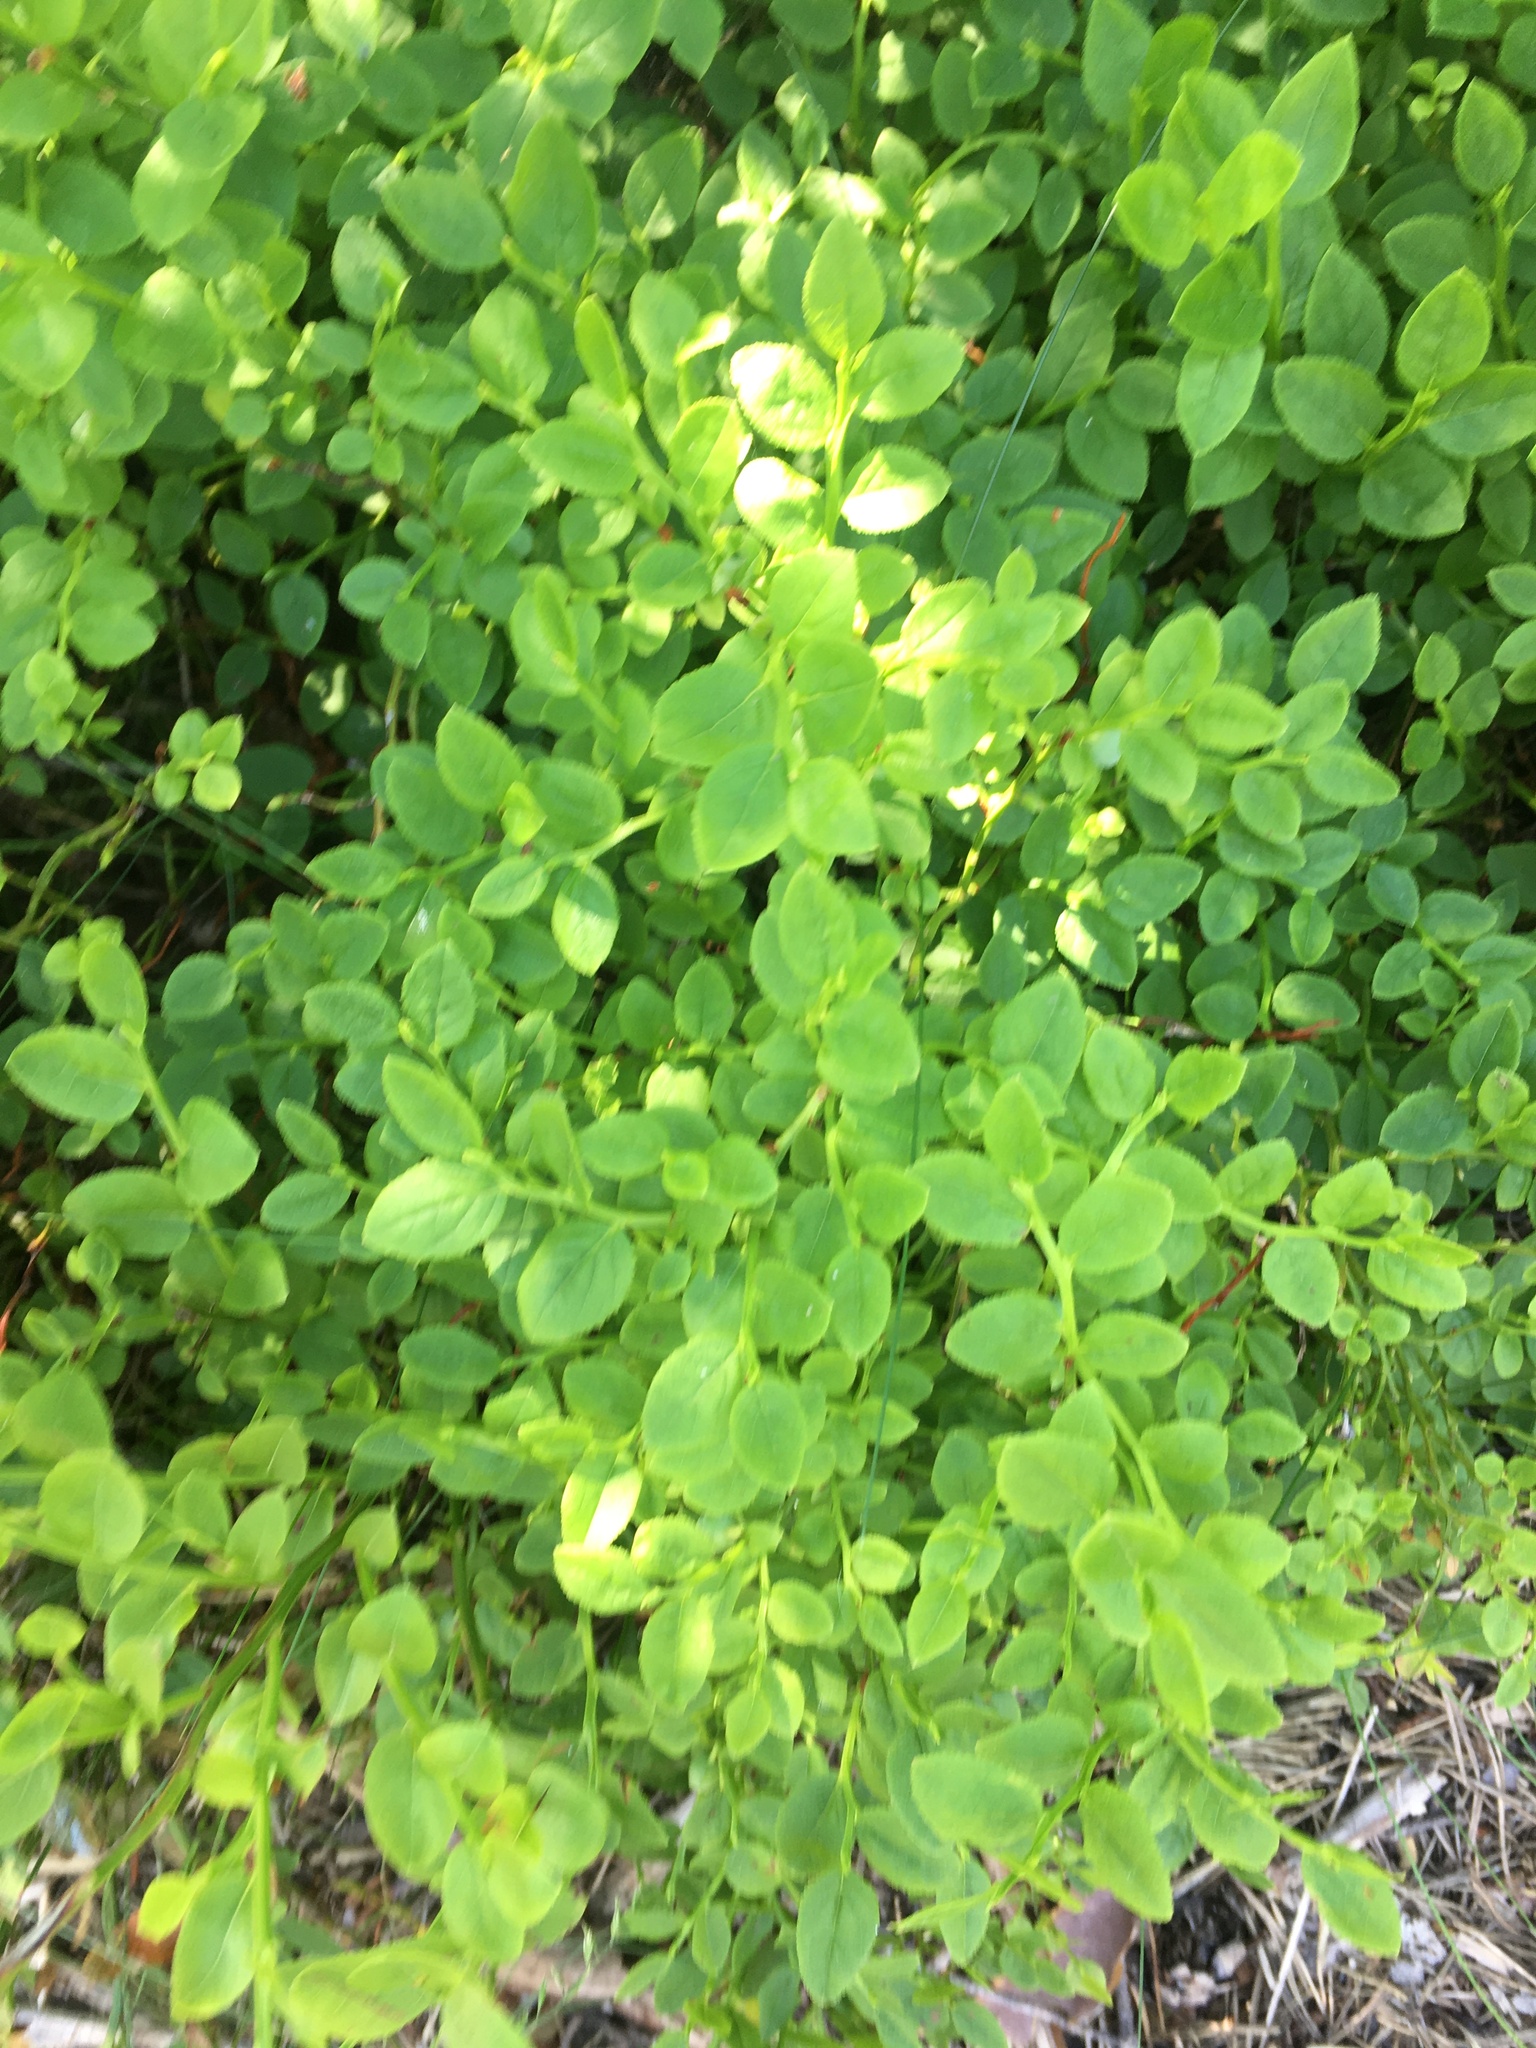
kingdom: Plantae
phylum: Tracheophyta
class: Magnoliopsida
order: Ericales
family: Ericaceae
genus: Vaccinium
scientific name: Vaccinium myrtillus
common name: Bilberry
